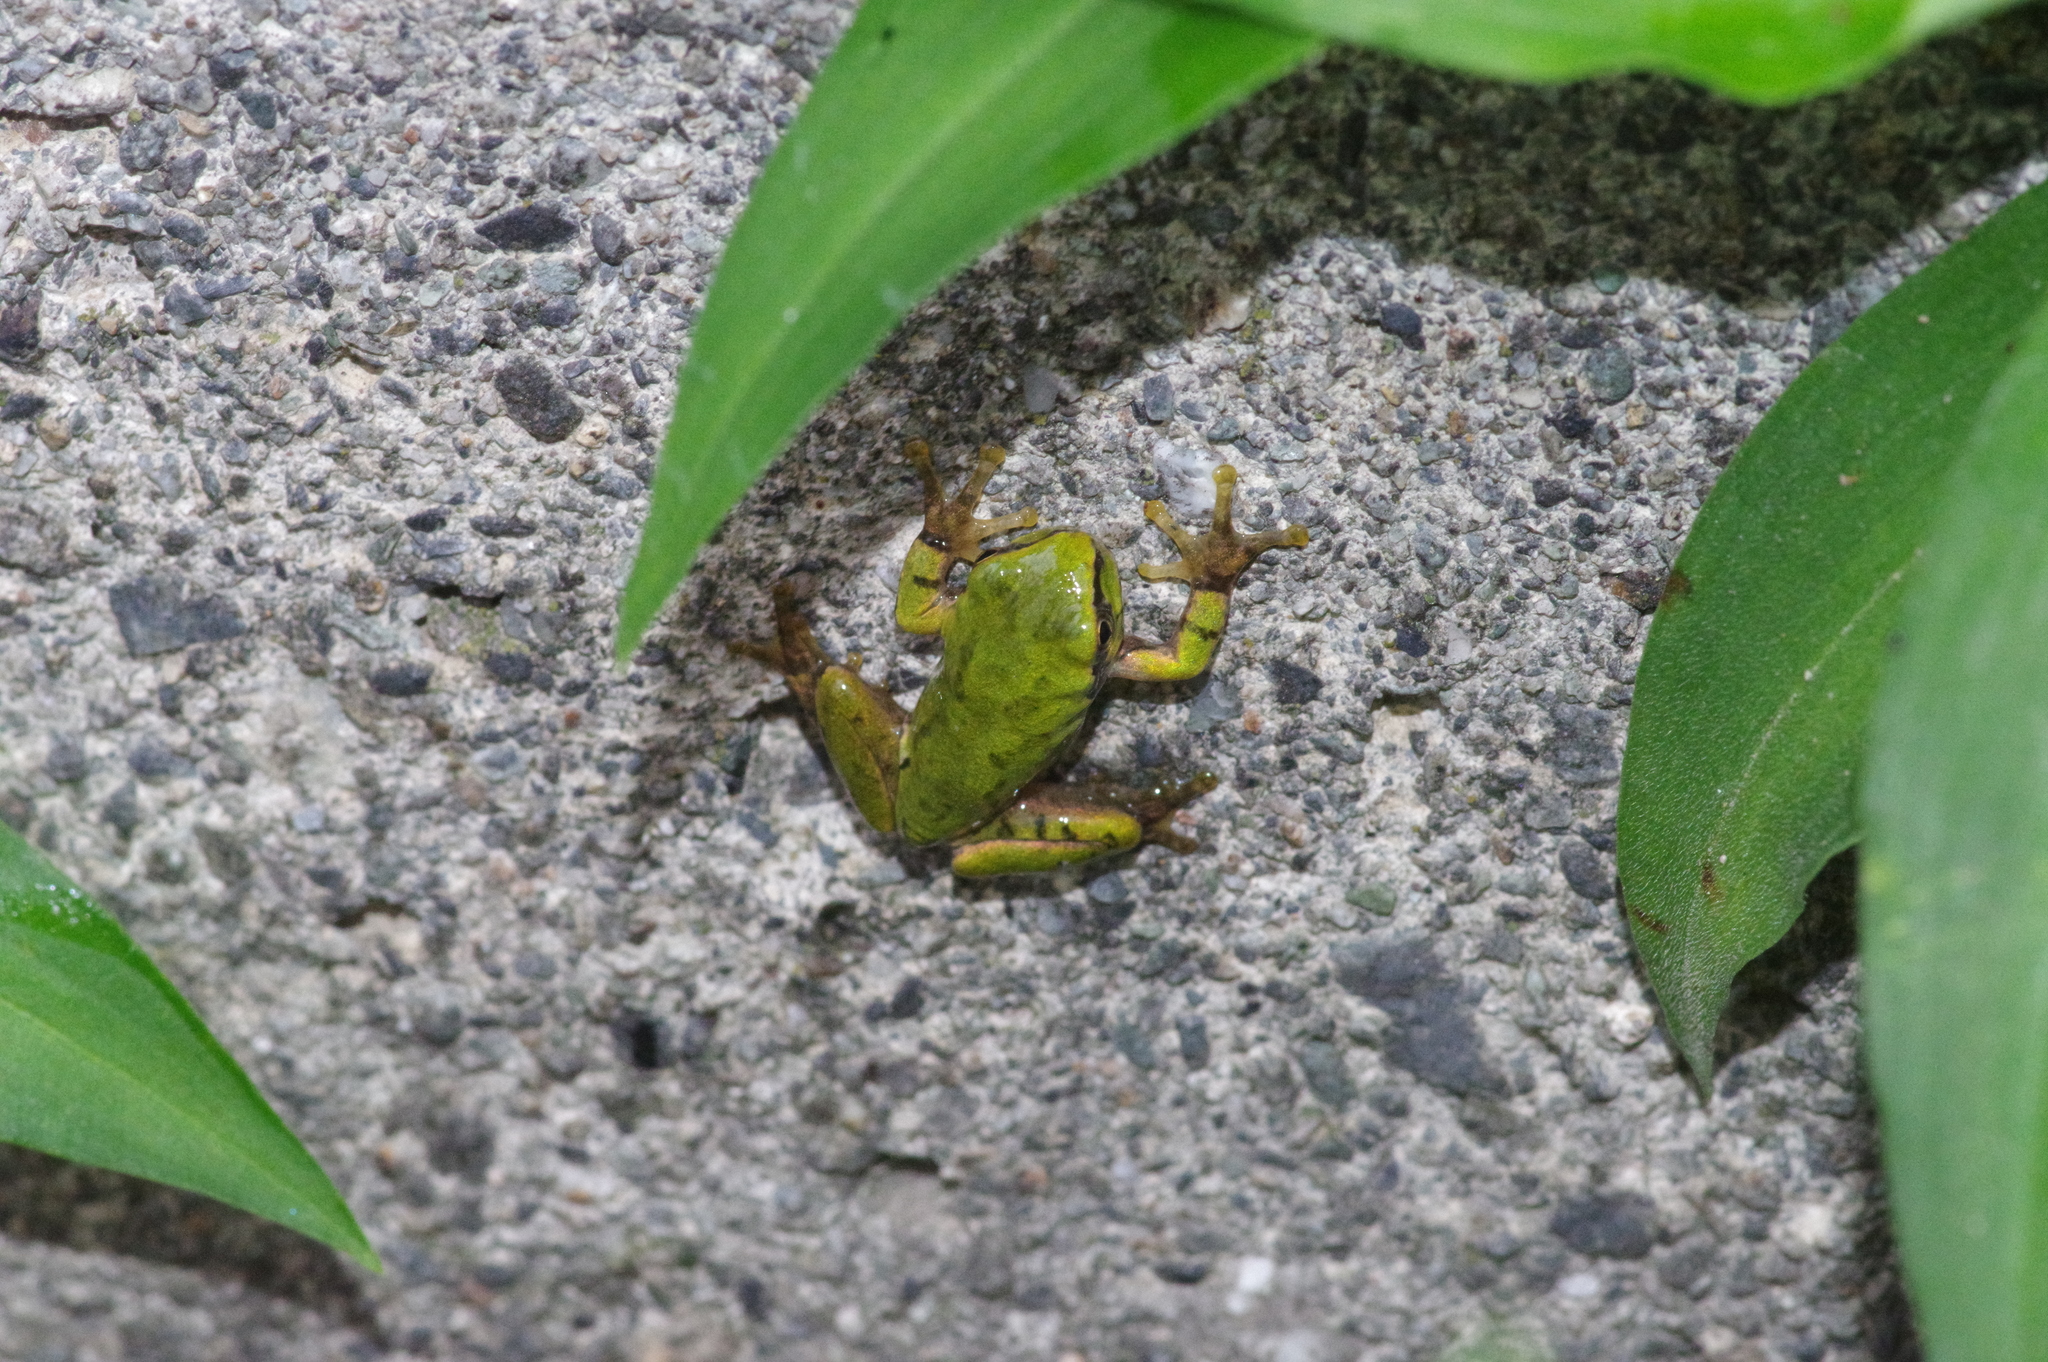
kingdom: Animalia
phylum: Chordata
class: Amphibia
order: Anura
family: Hylidae
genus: Dryophytes
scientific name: Dryophytes japonicus
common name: Japanese treefrog
